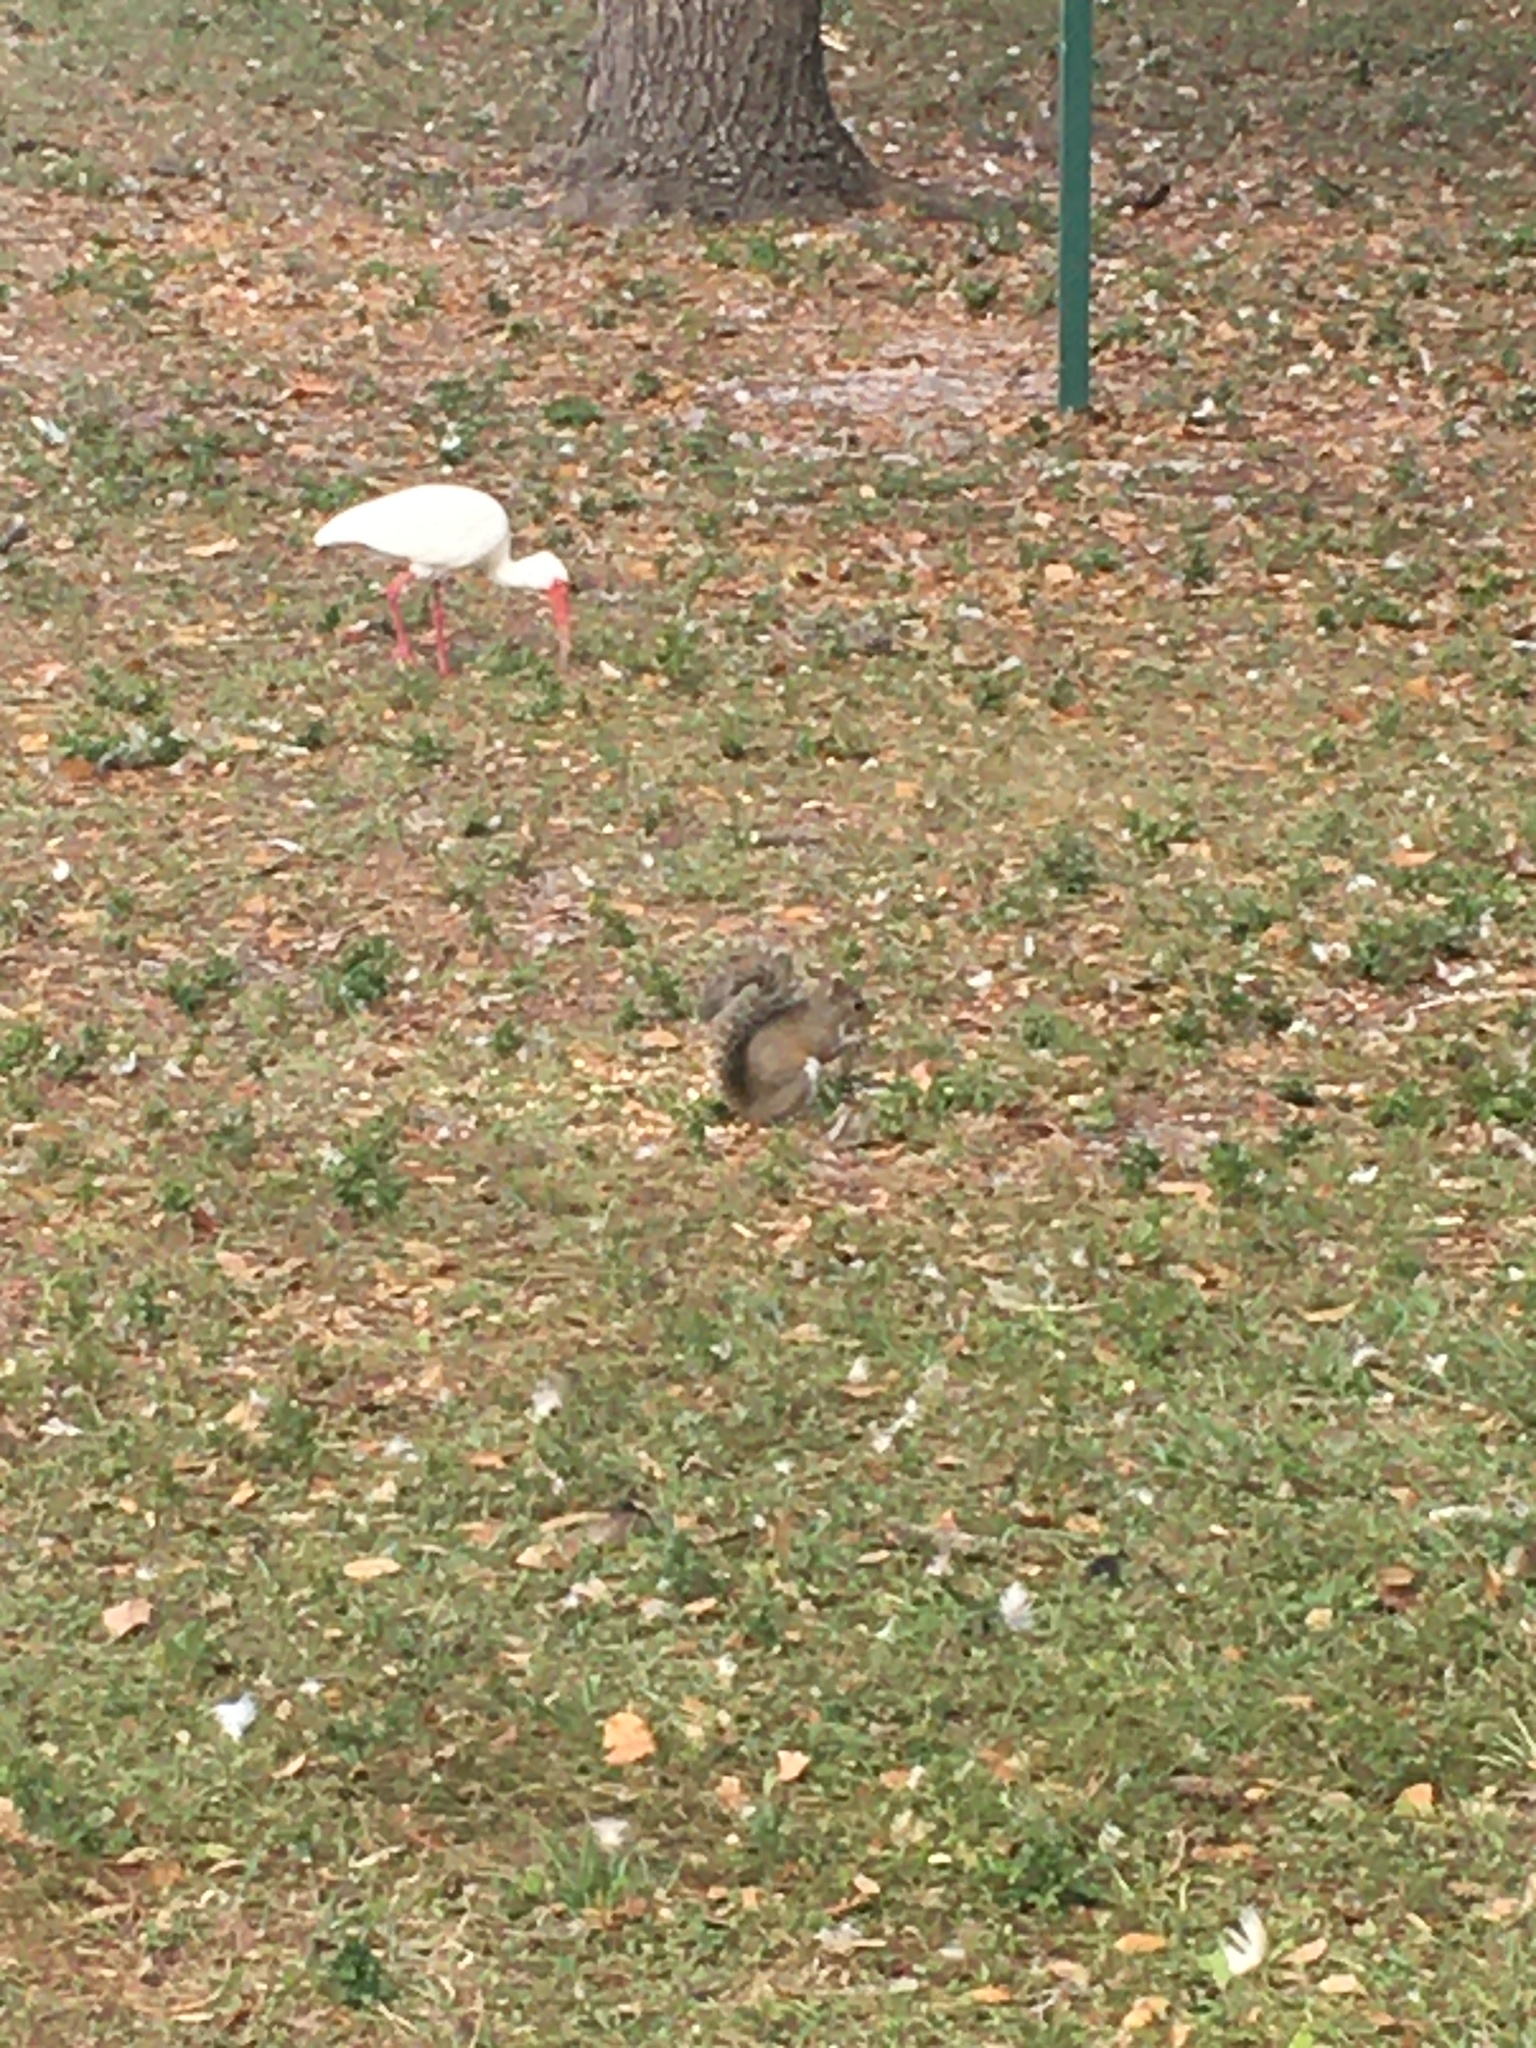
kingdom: Animalia
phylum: Chordata
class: Mammalia
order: Rodentia
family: Sciuridae
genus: Sciurus
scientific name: Sciurus carolinensis
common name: Eastern gray squirrel
